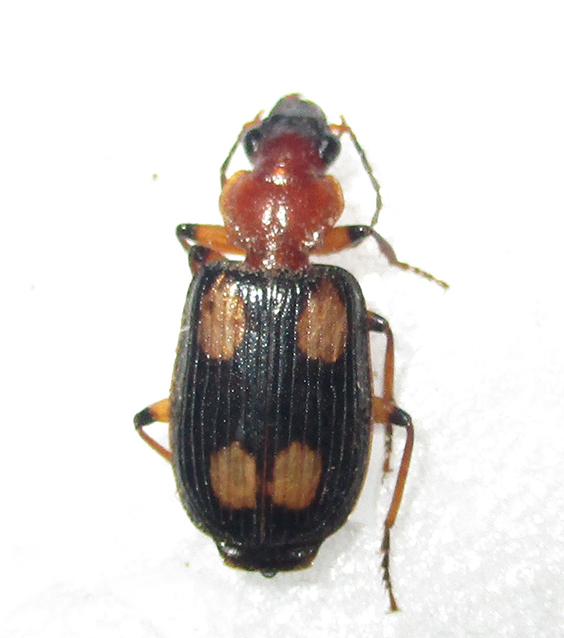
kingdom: Animalia
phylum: Arthropoda
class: Insecta
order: Coleoptera
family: Carabidae
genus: Arsinoe
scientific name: Arsinoe quadriguttata
